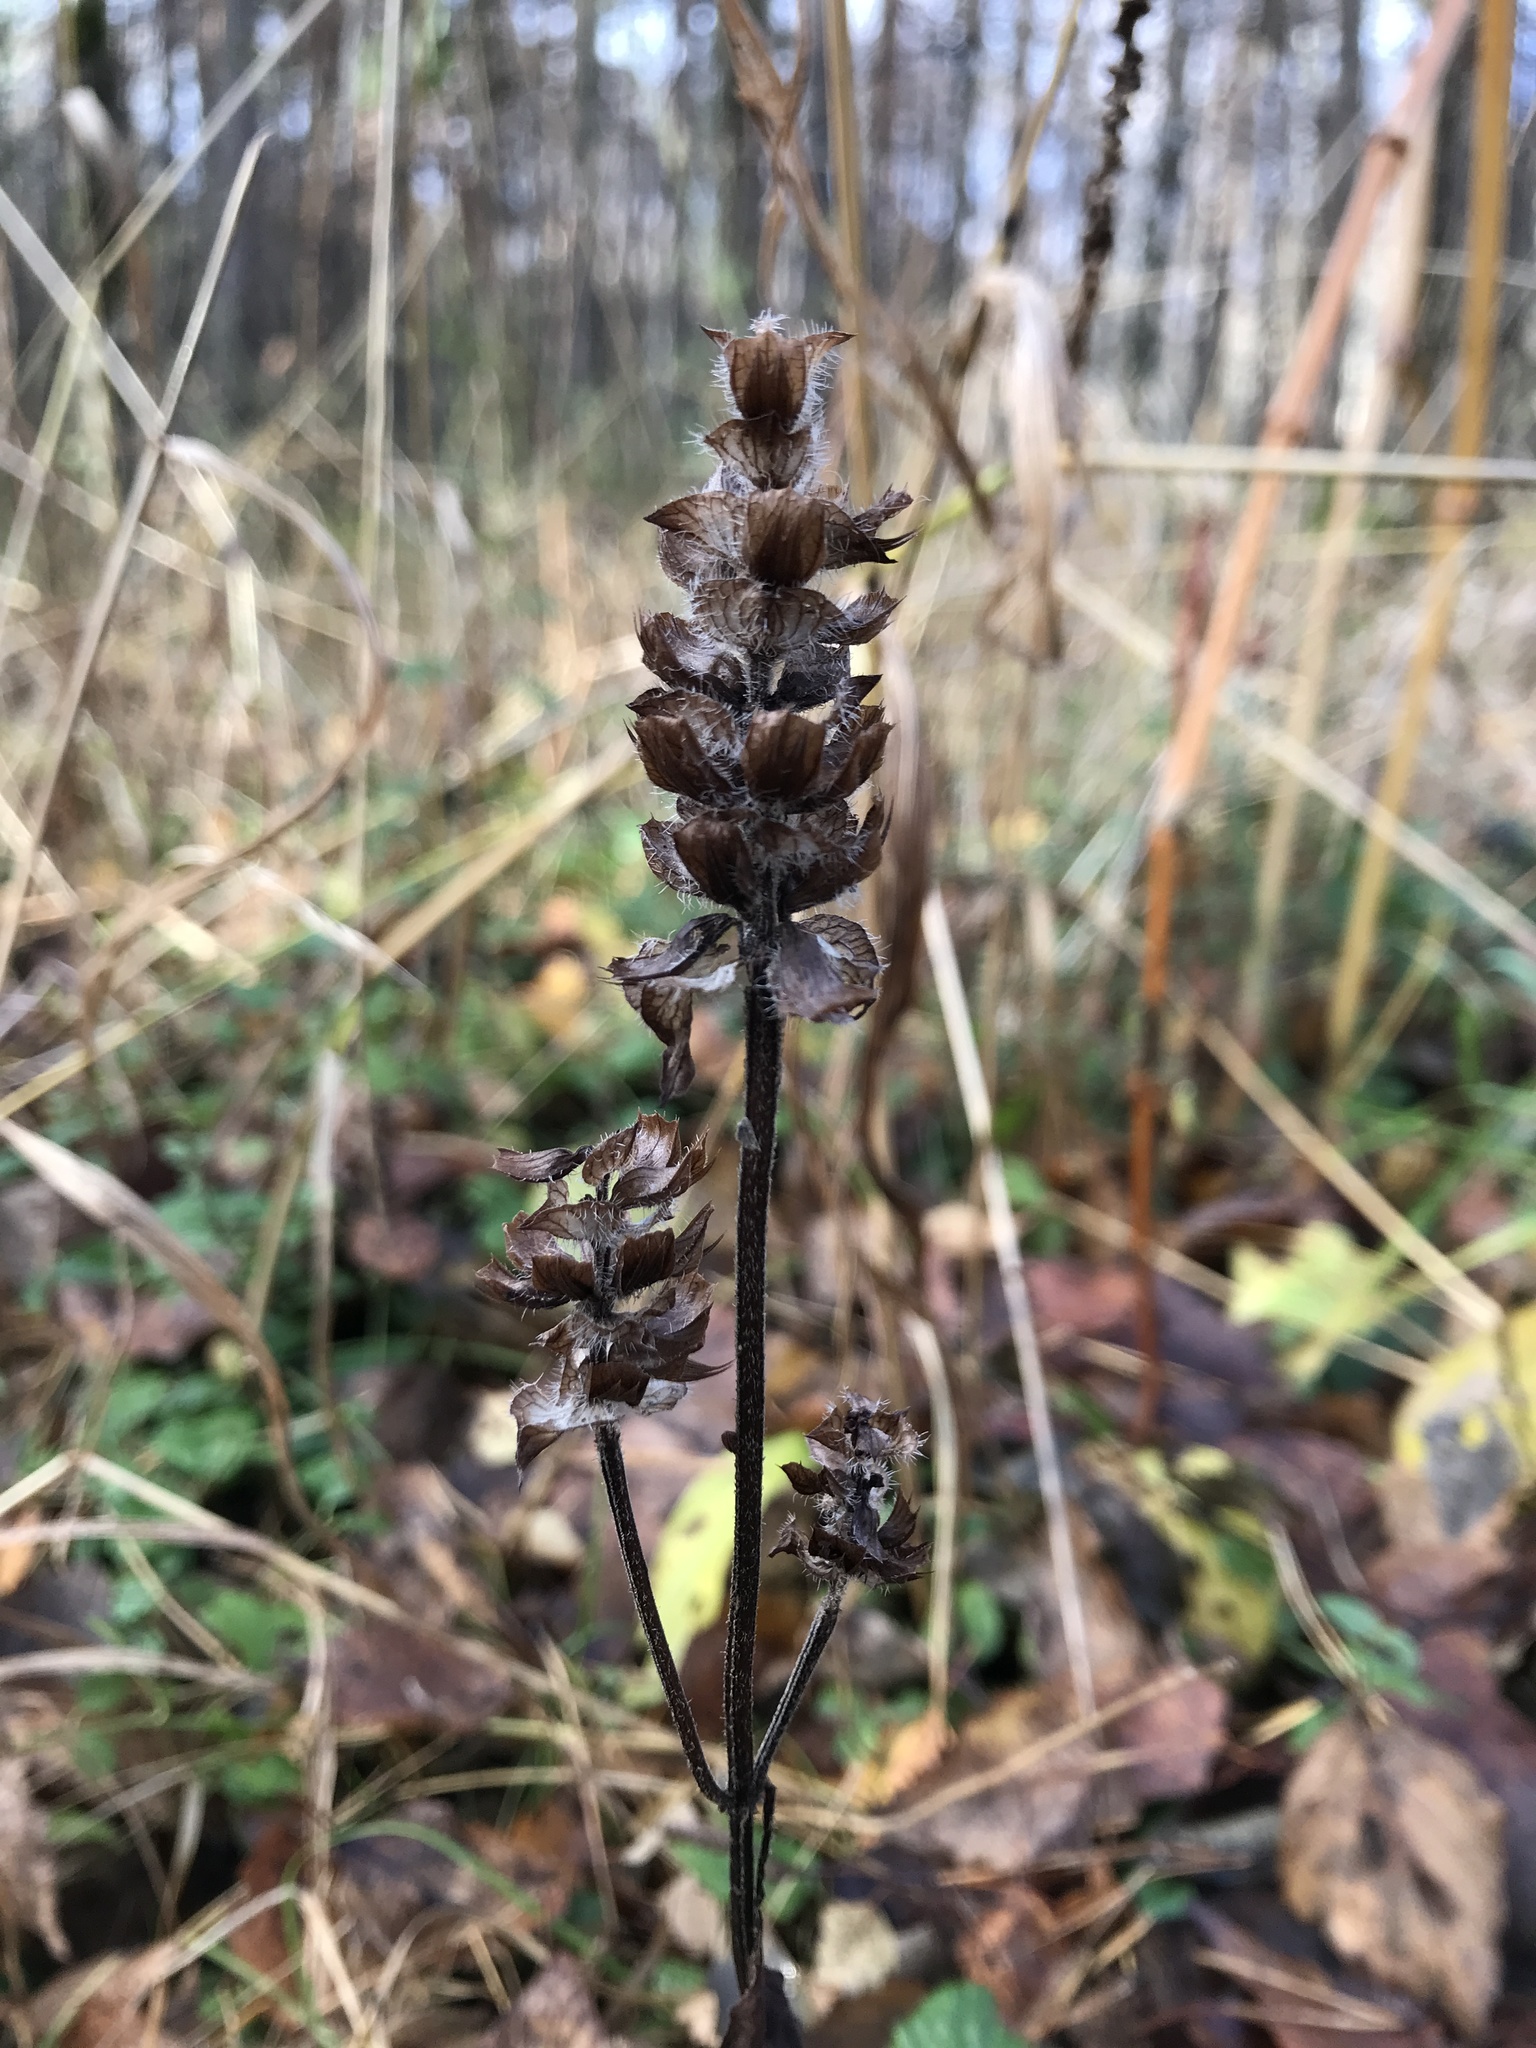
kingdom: Plantae
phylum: Tracheophyta
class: Magnoliopsida
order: Lamiales
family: Lamiaceae
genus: Prunella
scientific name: Prunella vulgaris
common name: Heal-all
